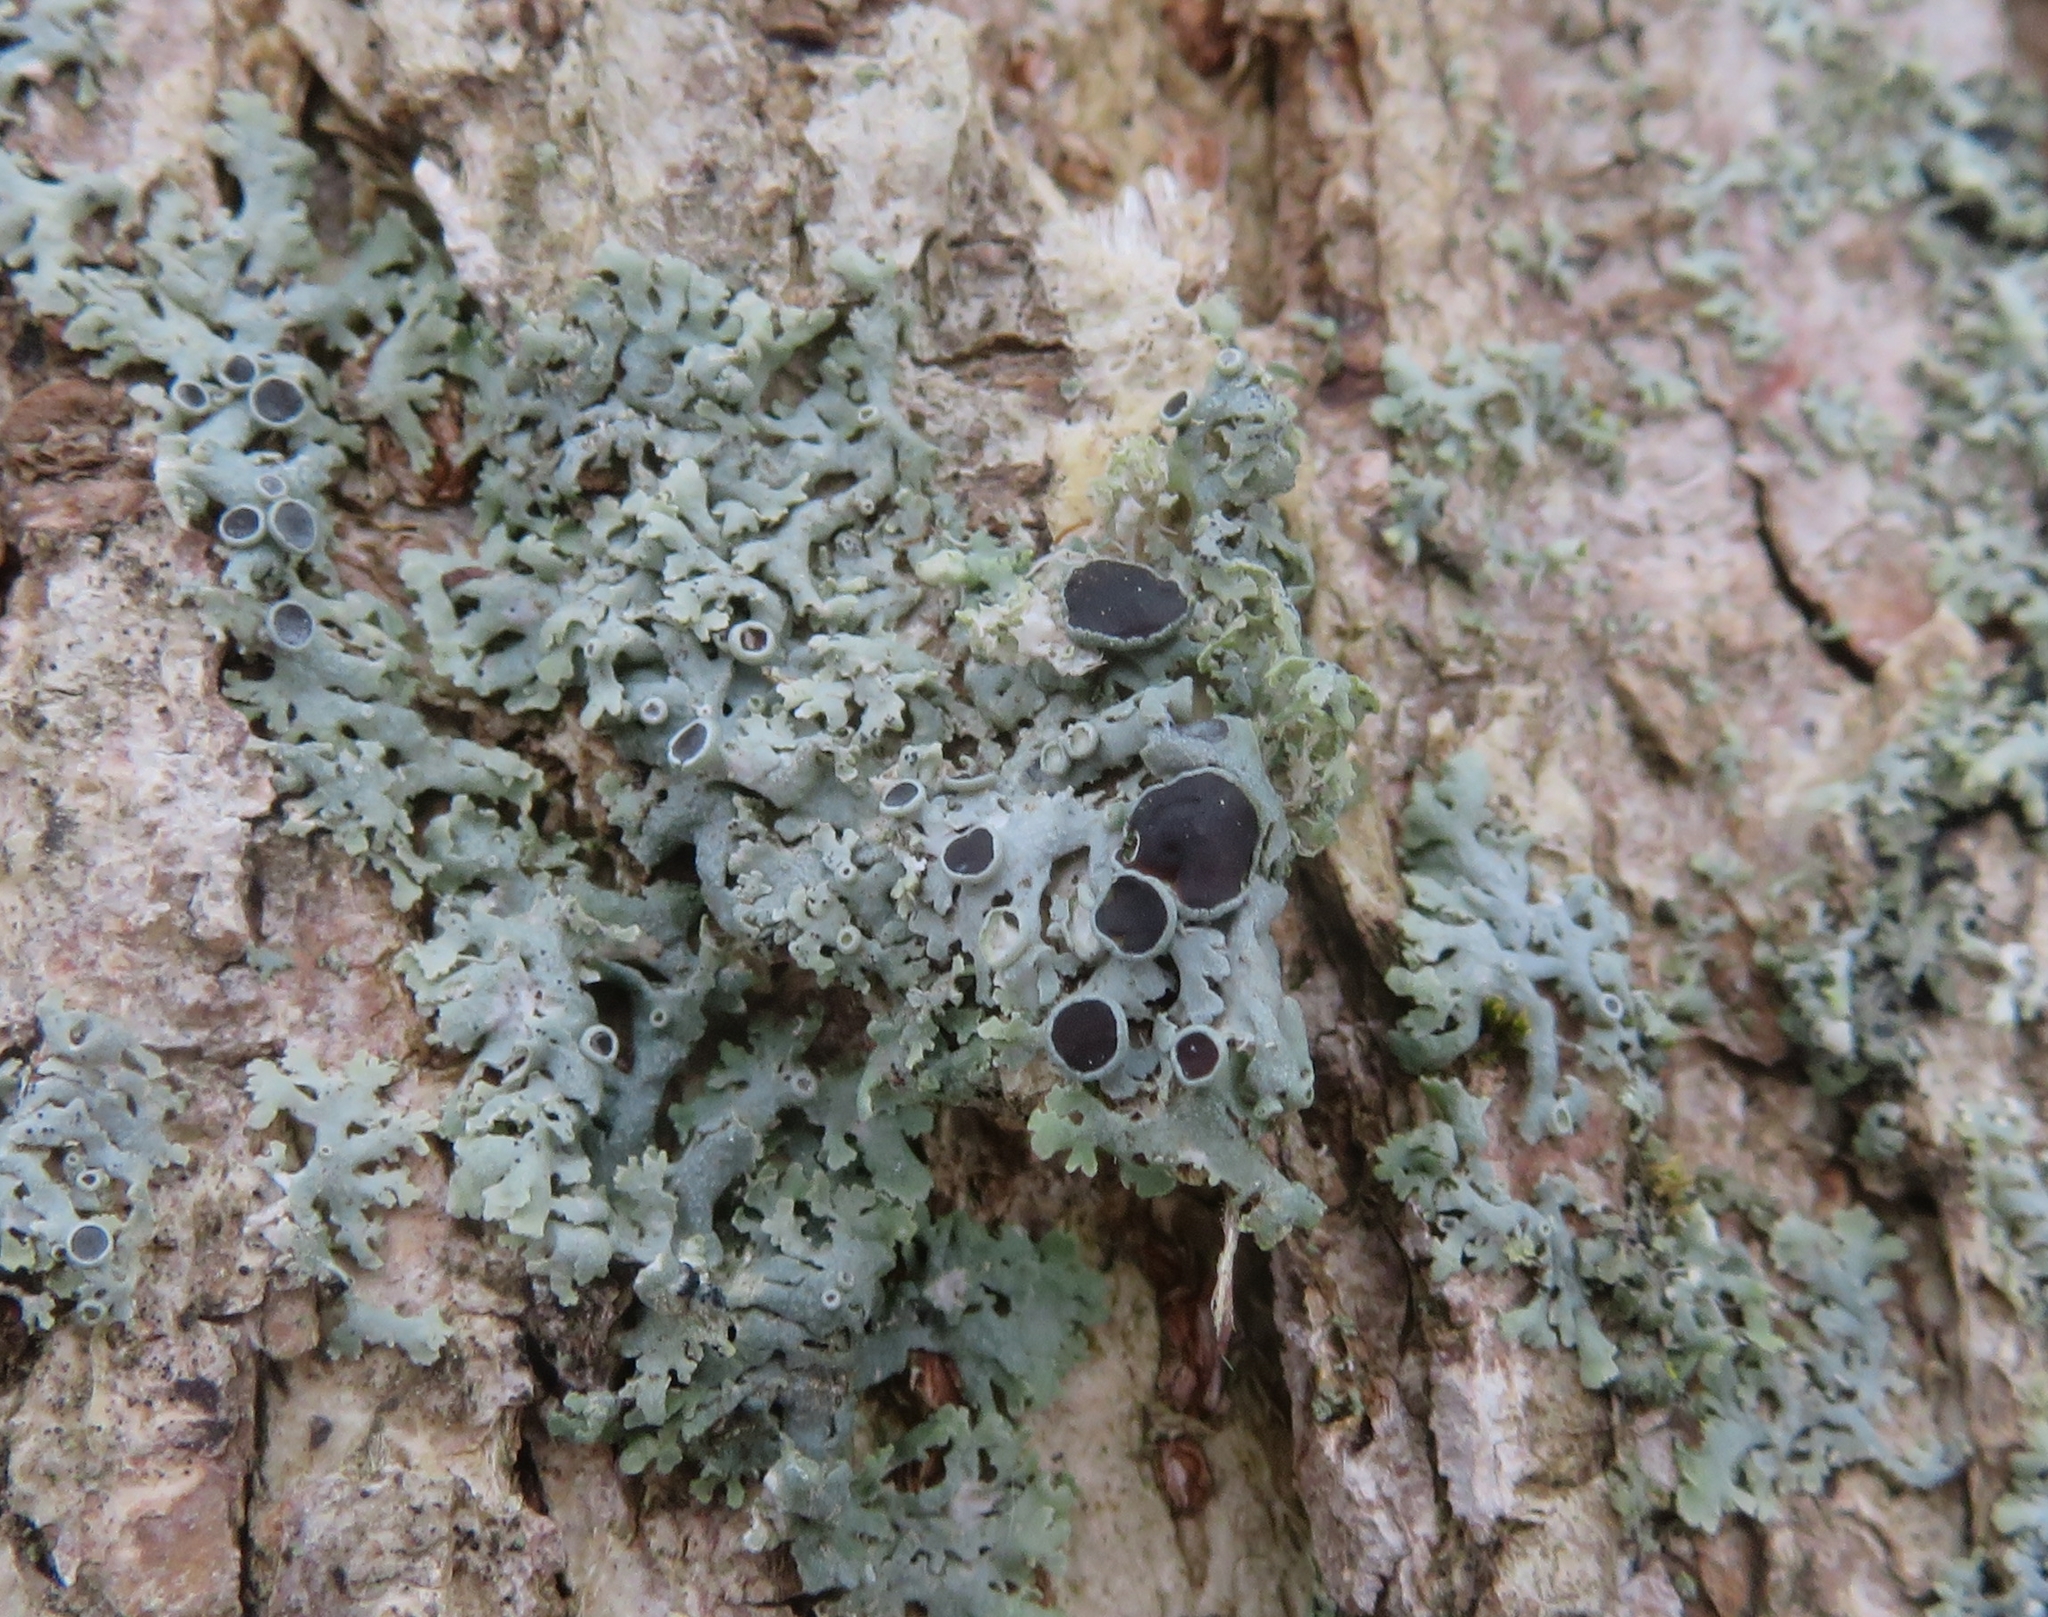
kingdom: Fungi
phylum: Ascomycota
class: Lecanoromycetes
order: Caliciales
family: Physciaceae
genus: Physcia
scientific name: Physcia stellaris
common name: Star rosette lichen
